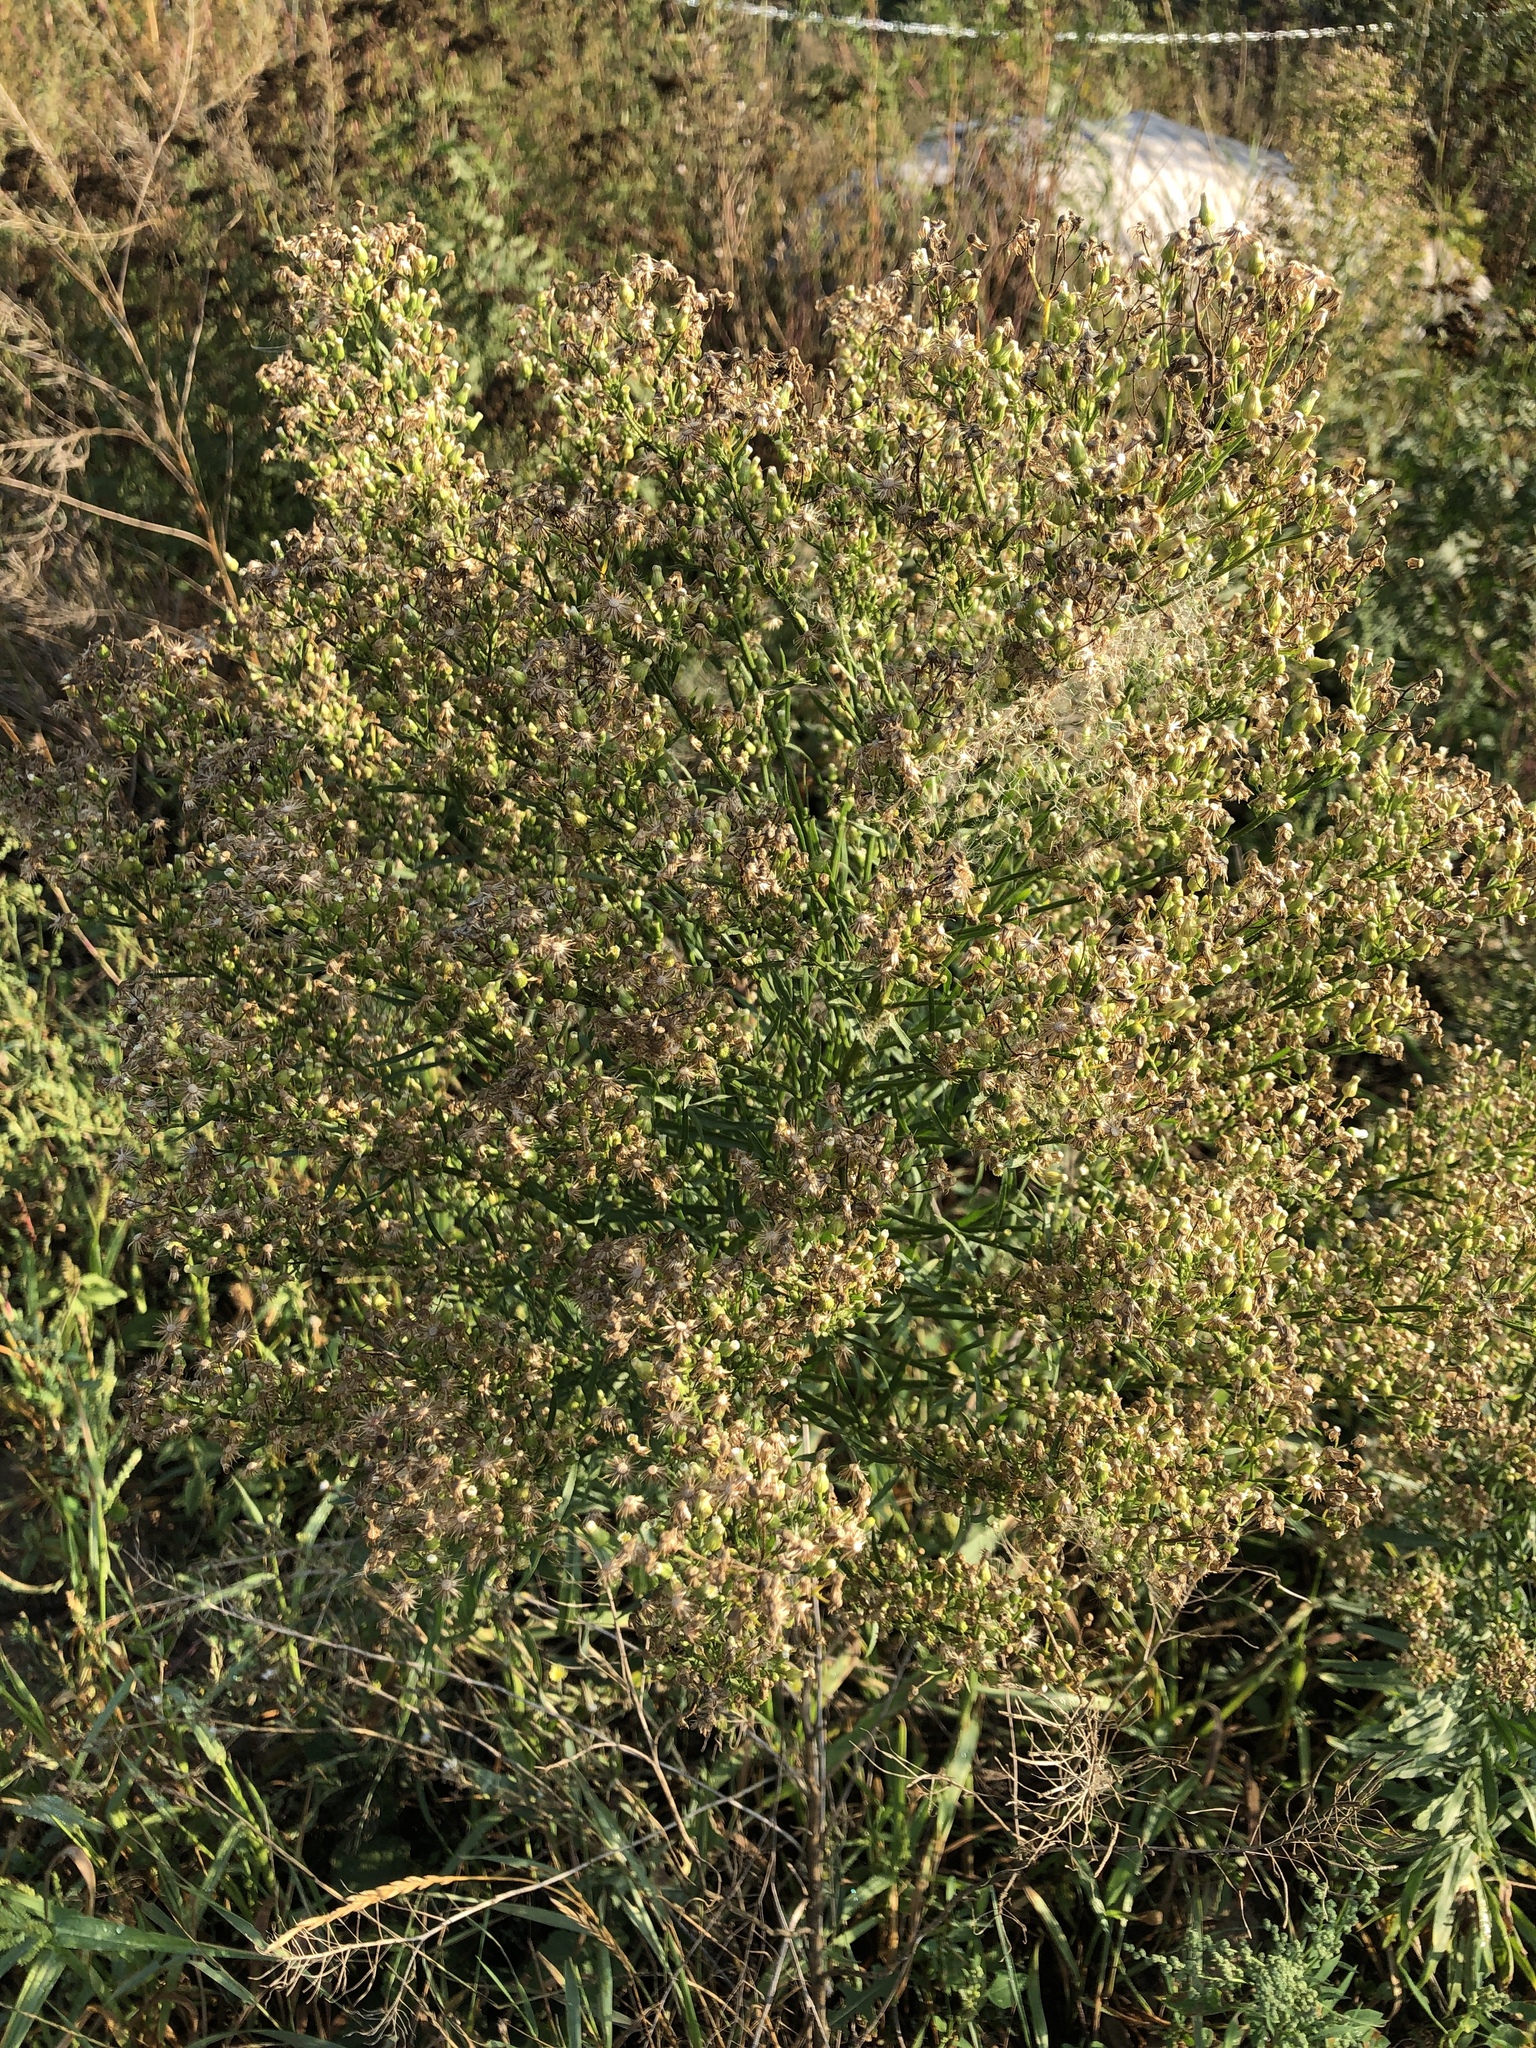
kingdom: Plantae
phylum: Tracheophyta
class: Magnoliopsida
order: Asterales
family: Asteraceae
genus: Erigeron
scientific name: Erigeron canadensis
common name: Canadian fleabane
